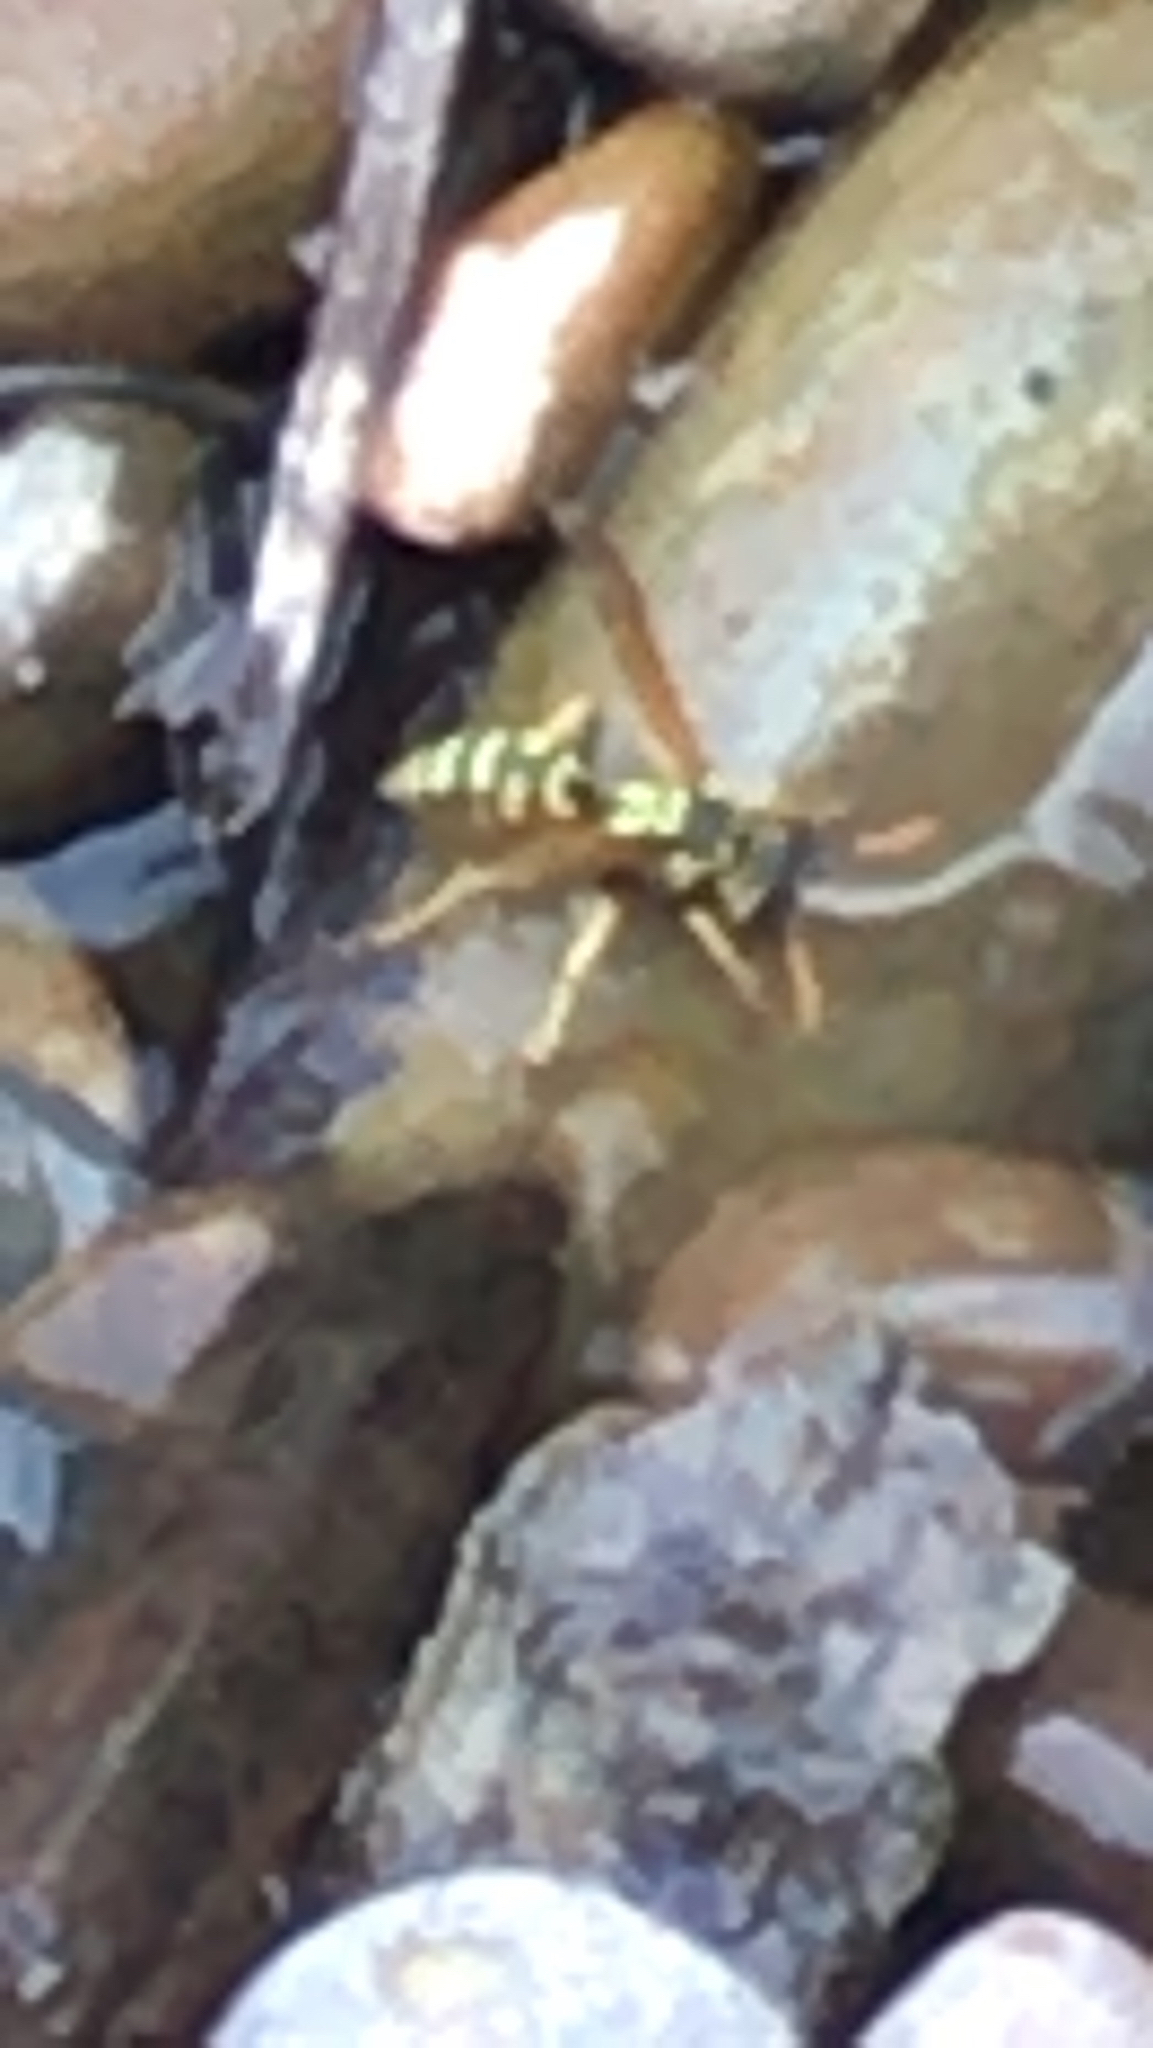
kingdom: Animalia
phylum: Arthropoda
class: Insecta
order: Hymenoptera
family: Eumenidae
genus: Polistes
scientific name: Polistes dominula
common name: Paper wasp
